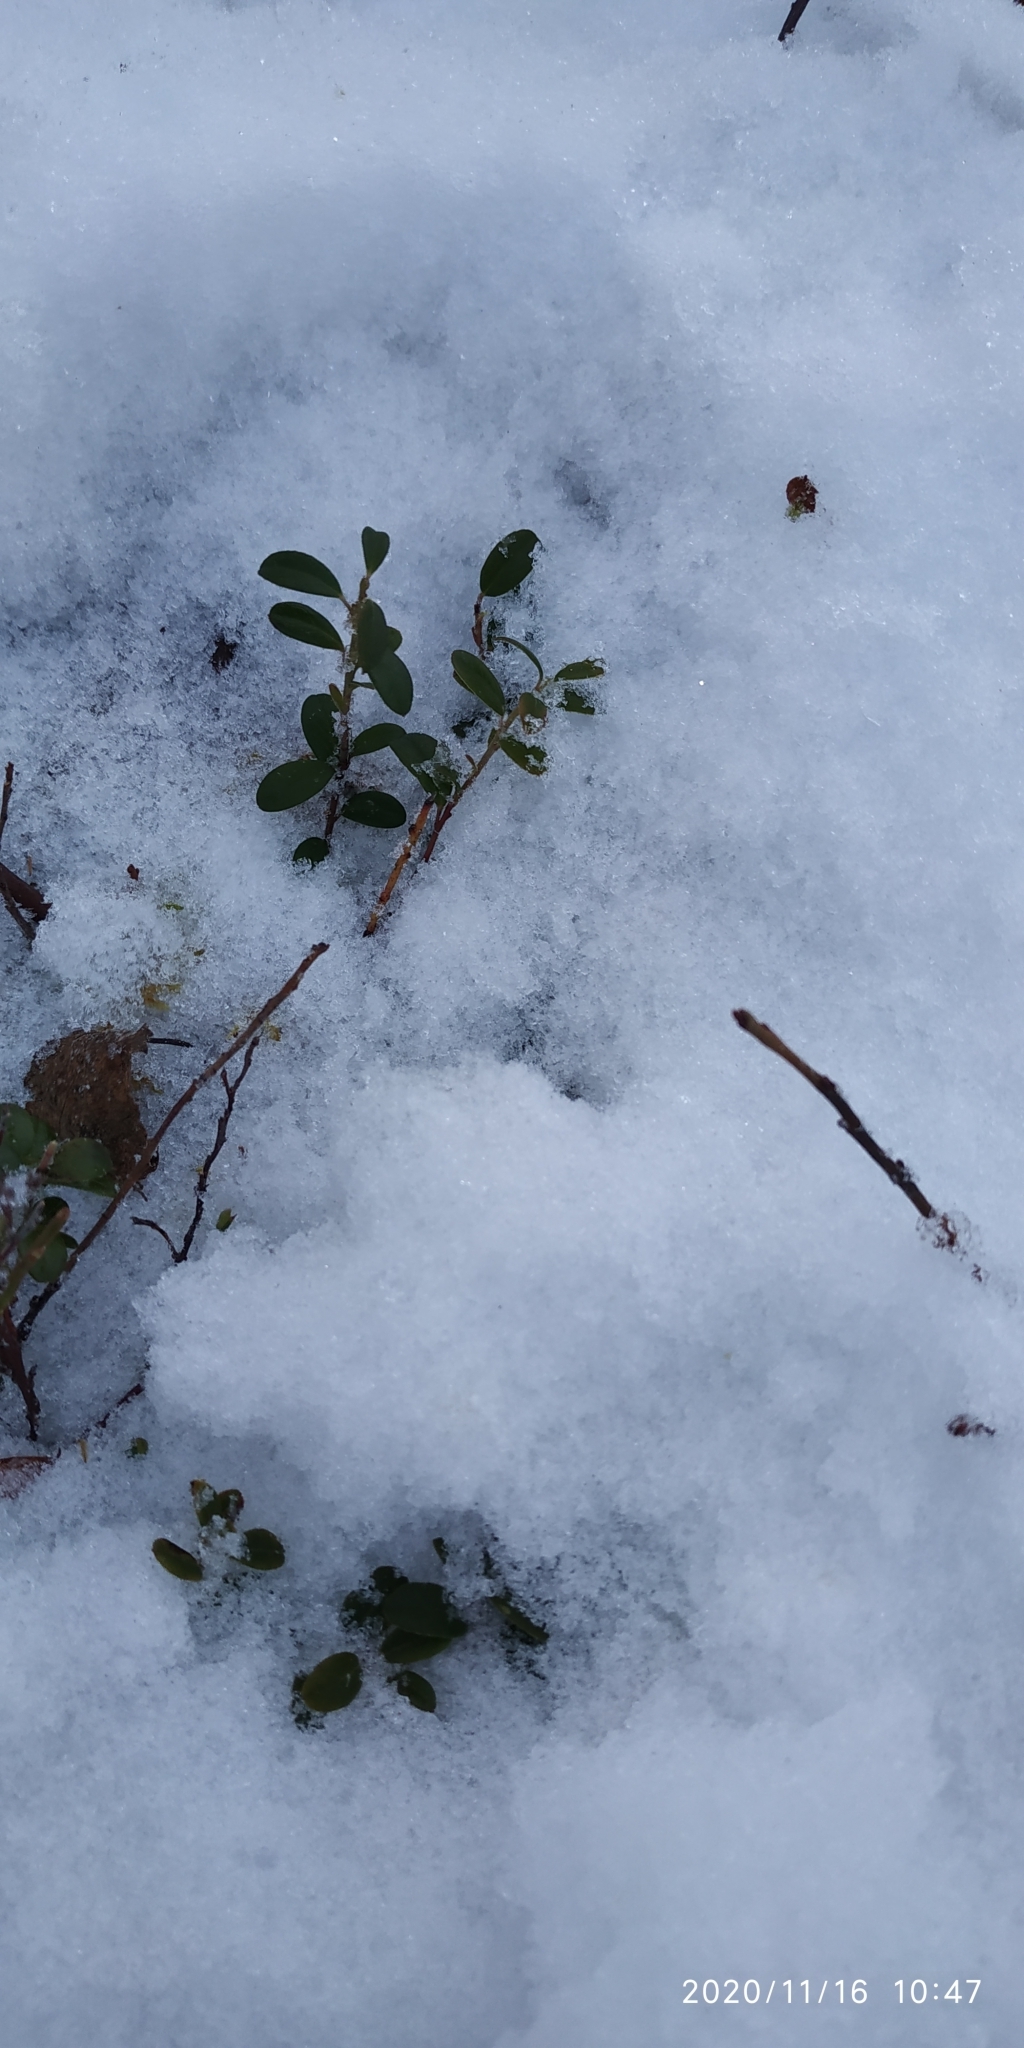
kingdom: Plantae
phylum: Tracheophyta
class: Magnoliopsida
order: Ericales
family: Ericaceae
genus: Vaccinium
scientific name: Vaccinium vitis-idaea
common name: Cowberry
